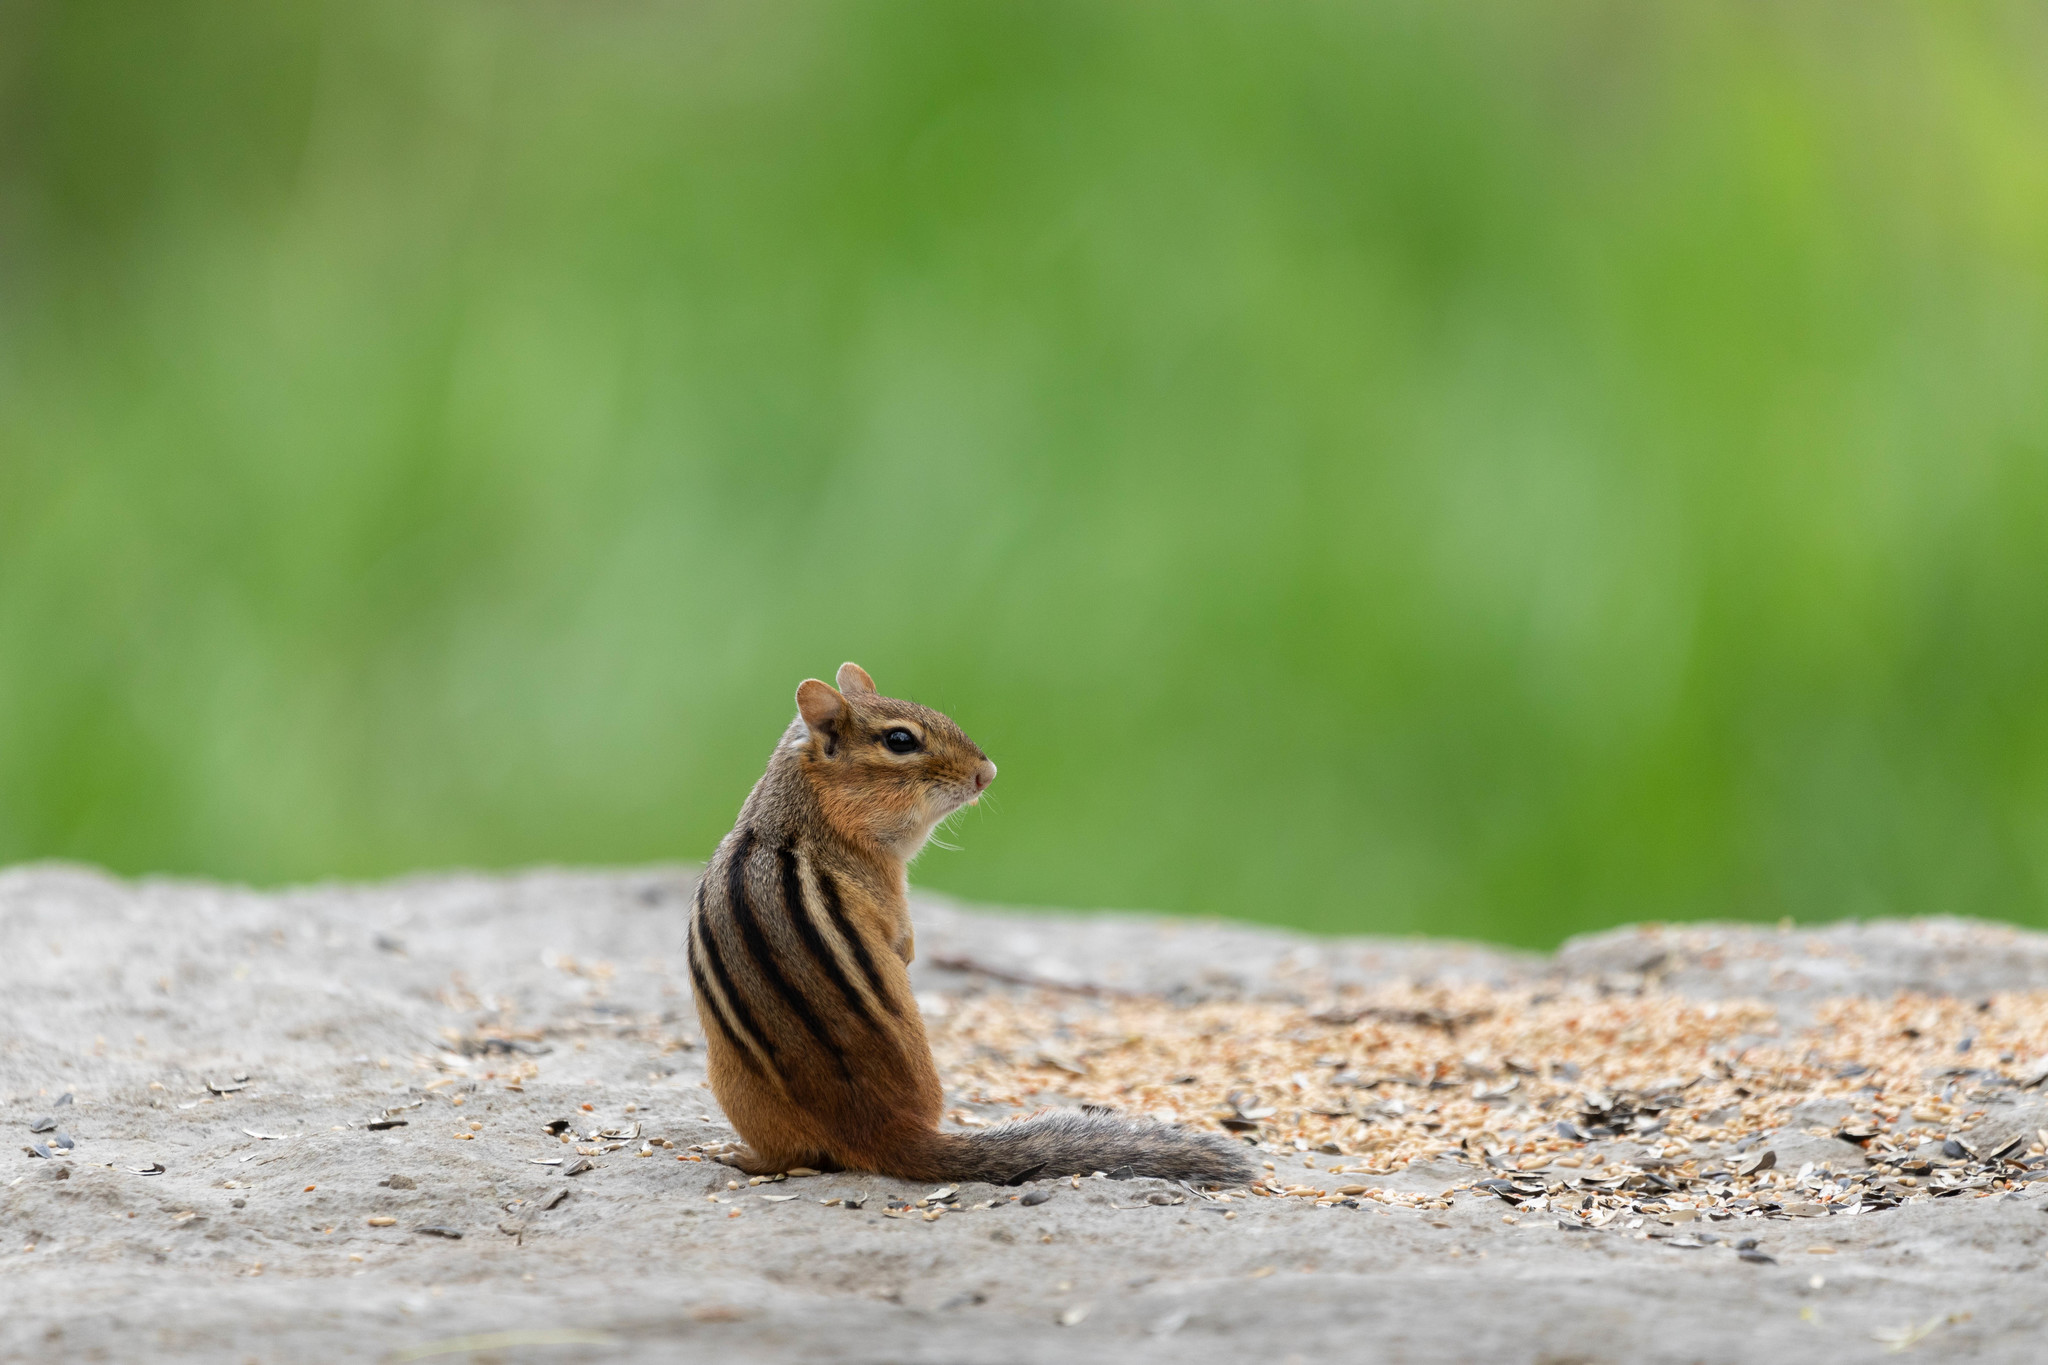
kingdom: Animalia
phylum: Chordata
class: Mammalia
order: Rodentia
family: Sciuridae
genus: Tamias
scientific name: Tamias striatus
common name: Eastern chipmunk
